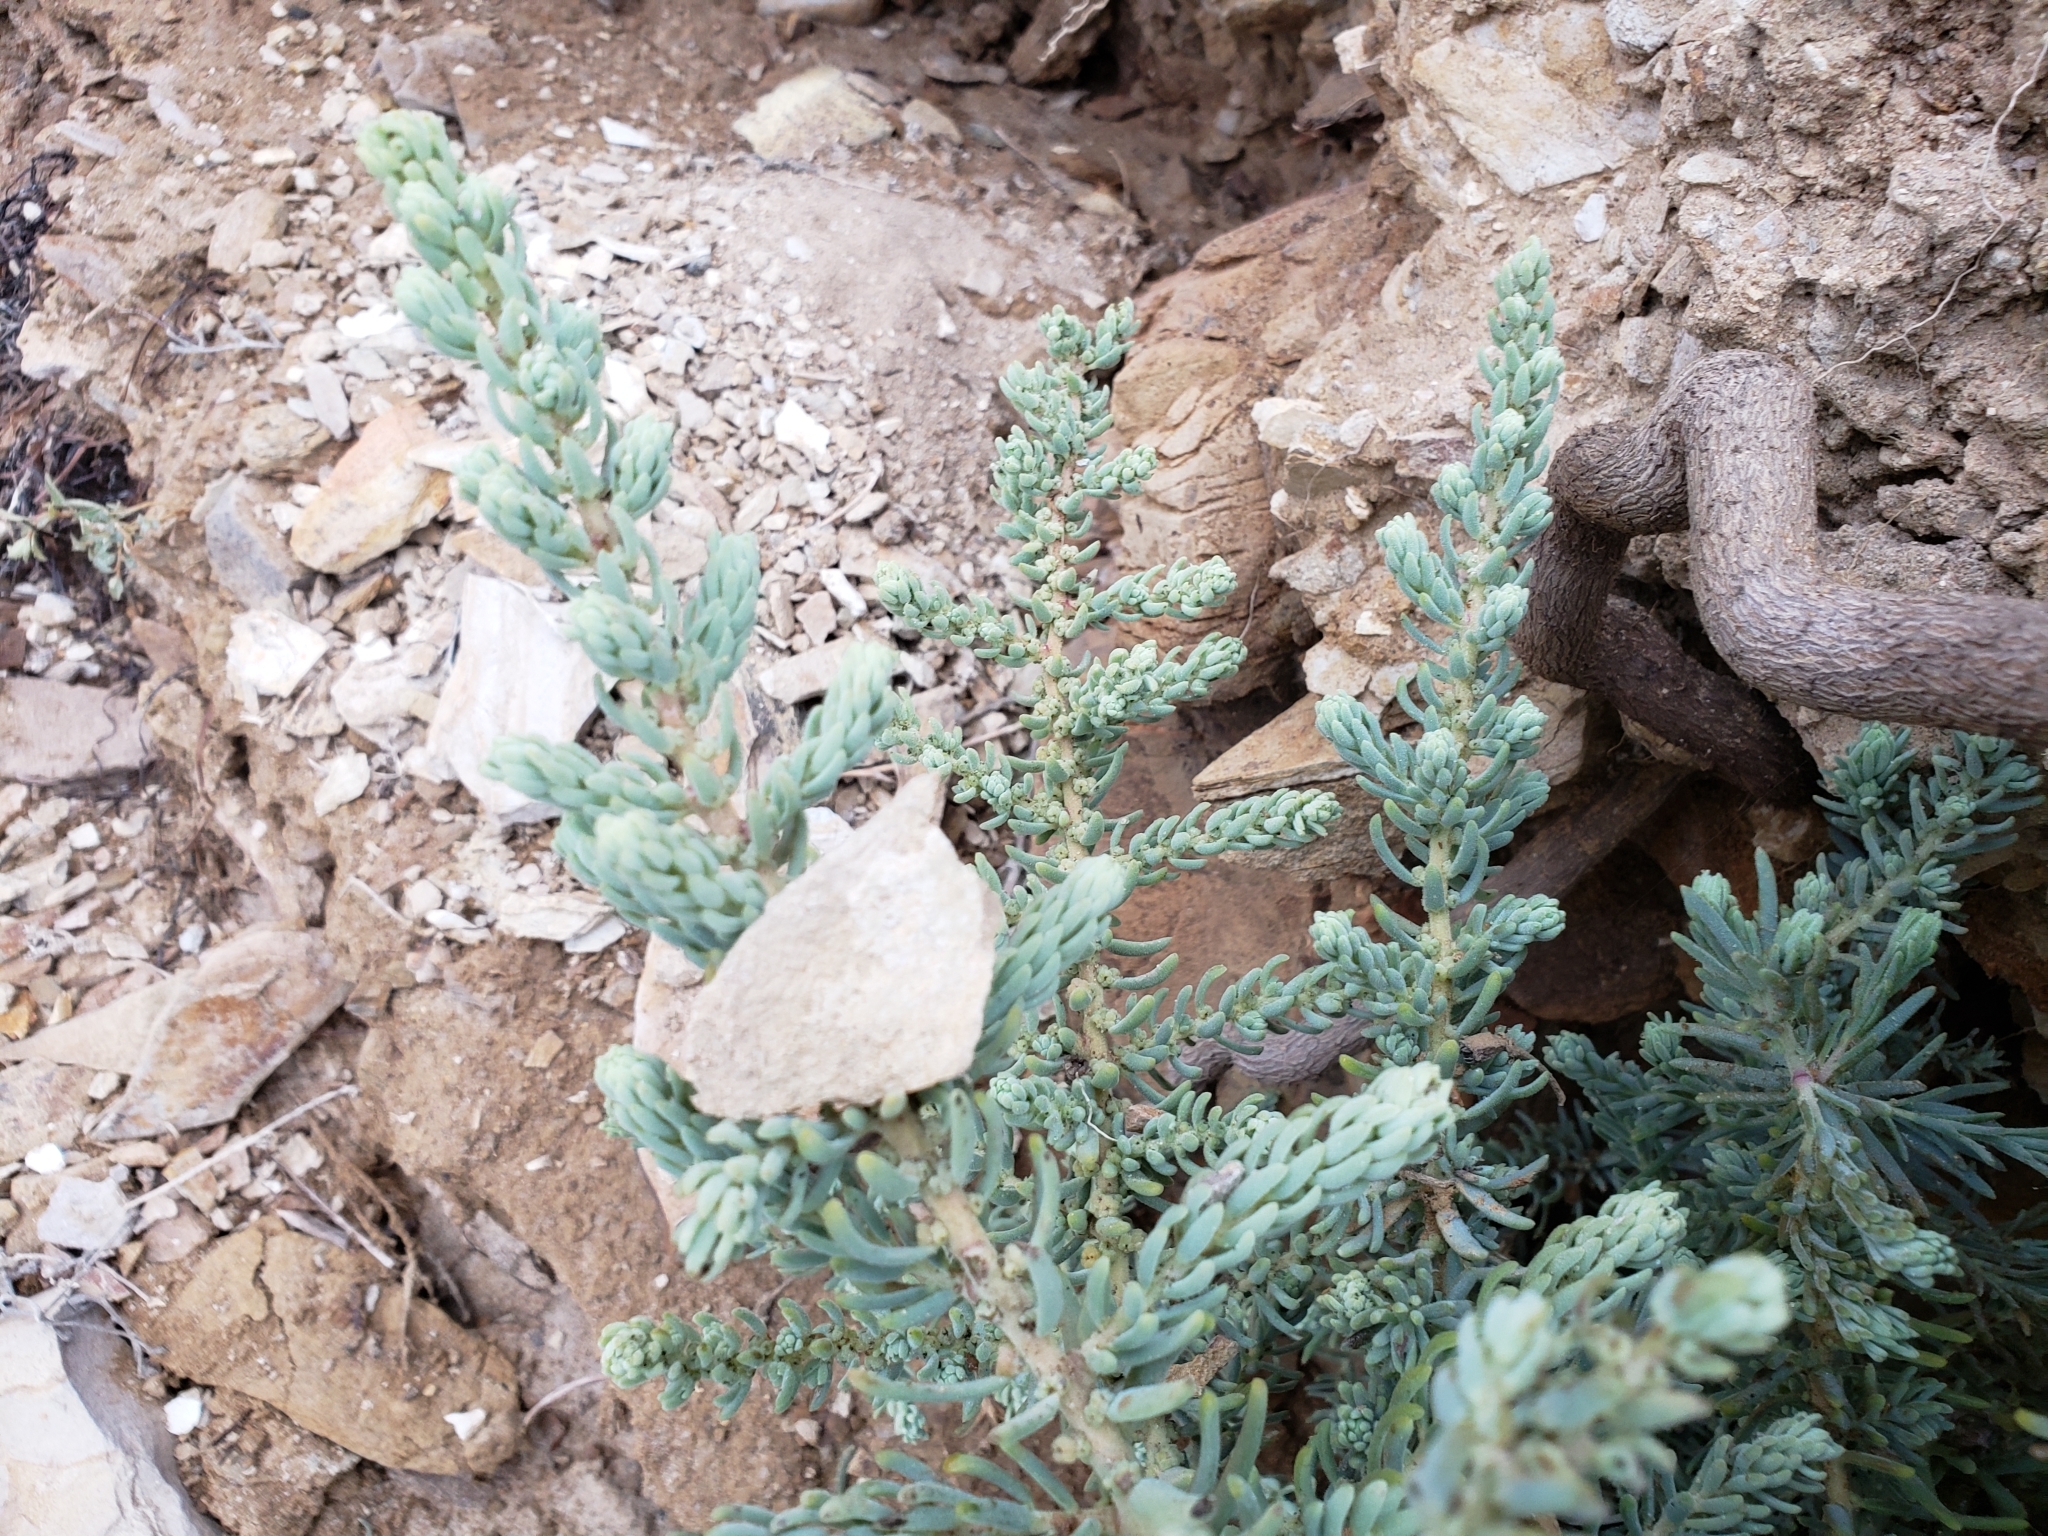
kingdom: Plantae
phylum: Tracheophyta
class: Magnoliopsida
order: Caryophyllales
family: Amaranthaceae
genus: Suaeda
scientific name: Suaeda taxifolia
